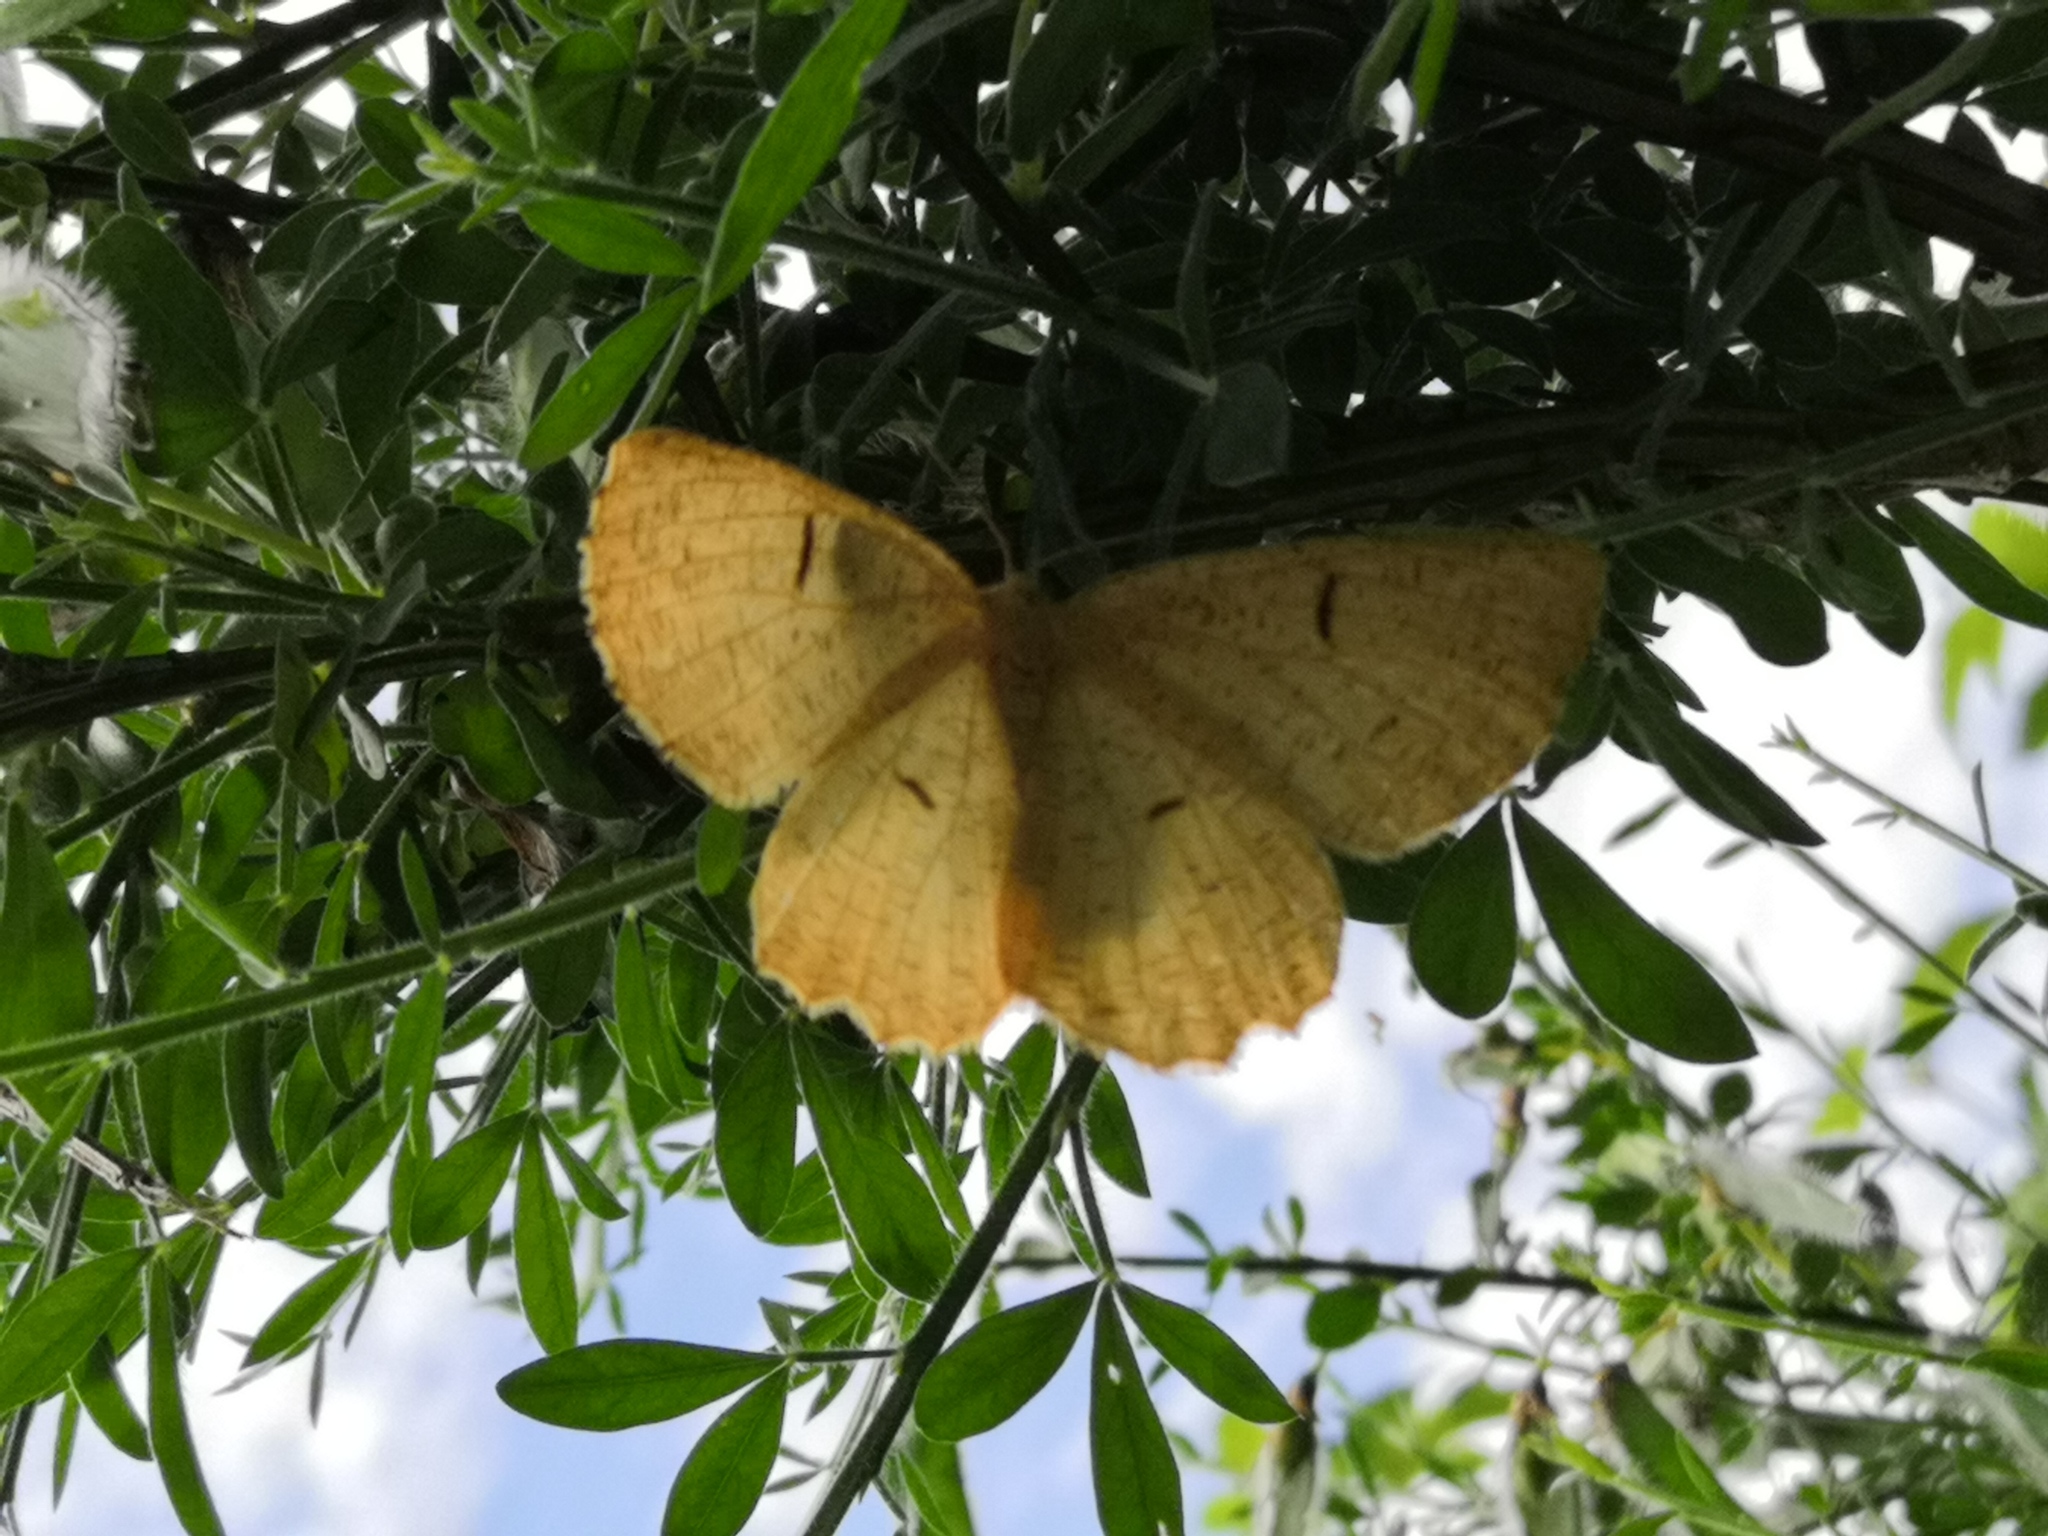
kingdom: Animalia
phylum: Arthropoda
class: Insecta
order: Lepidoptera
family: Geometridae
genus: Angerona
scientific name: Angerona prunaria
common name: Orange moth
